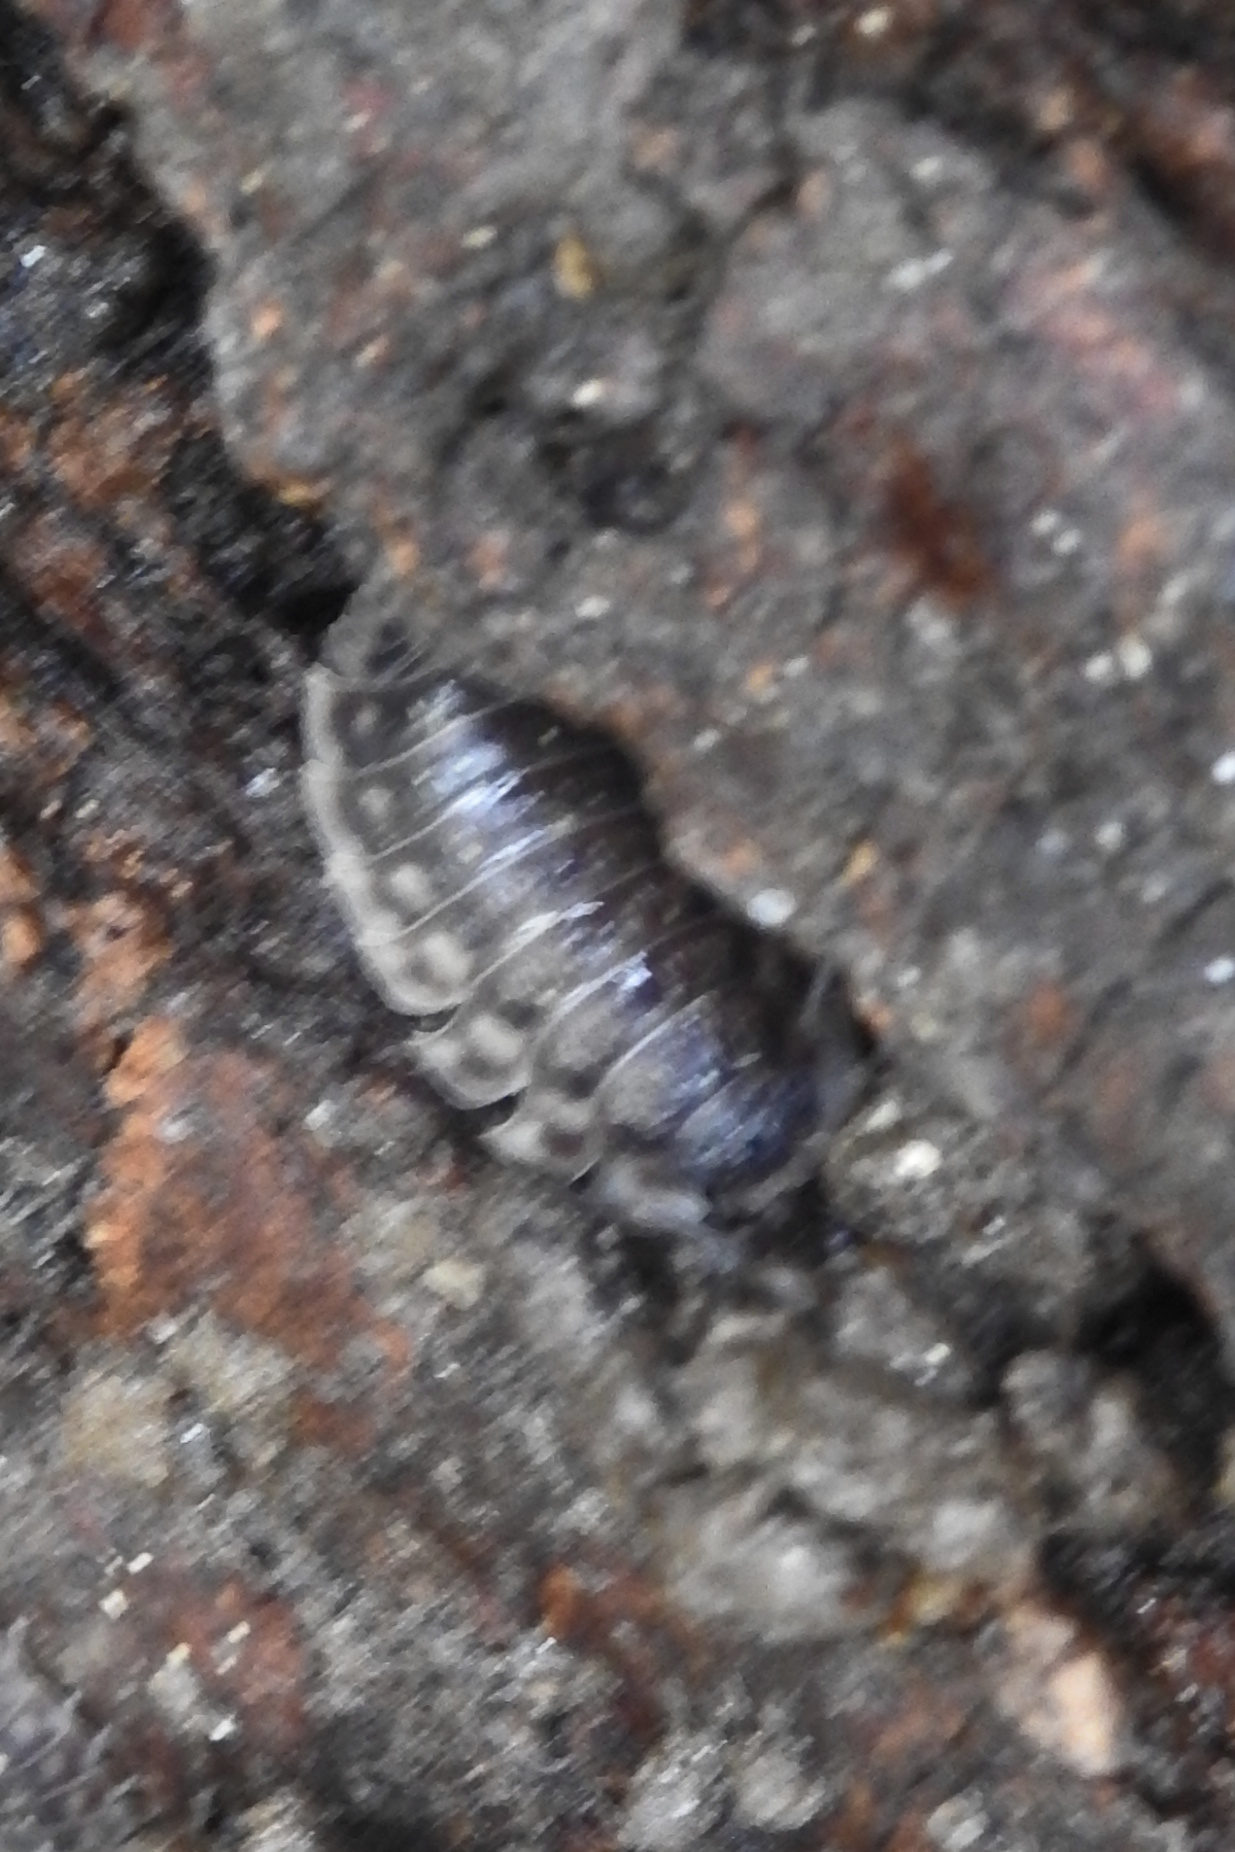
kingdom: Animalia
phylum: Arthropoda
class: Malacostraca
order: Isopoda
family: Oniscidae
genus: Oniscus
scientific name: Oniscus asellus
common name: Common shiny woodlouse
